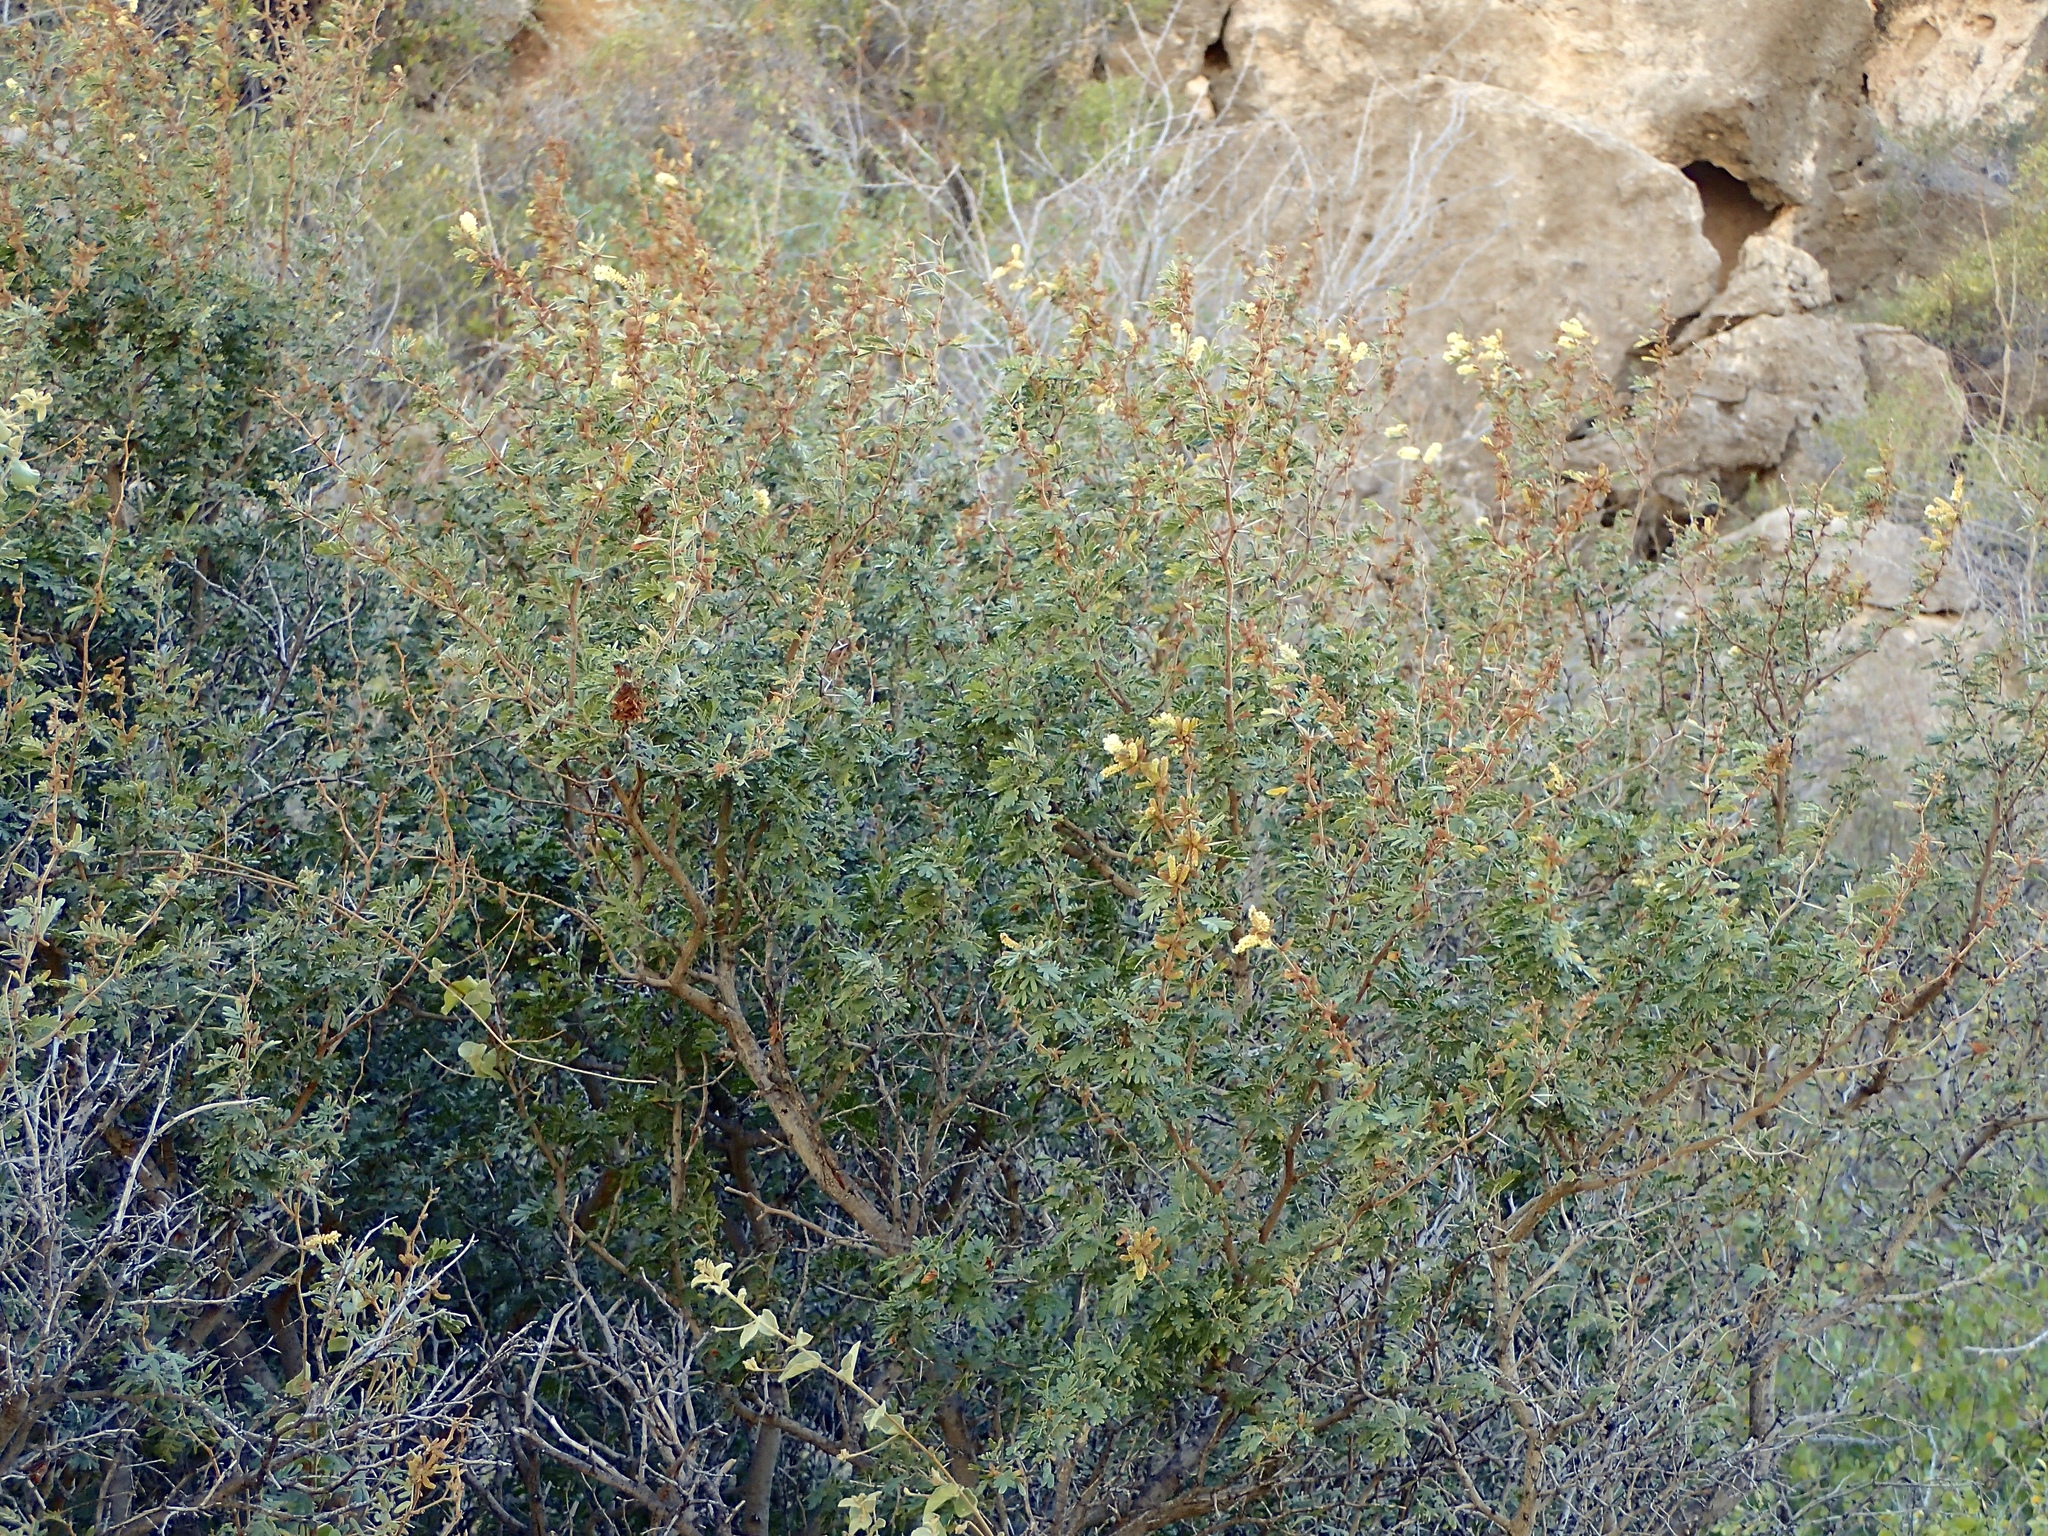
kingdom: Plantae
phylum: Tracheophyta
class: Magnoliopsida
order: Fabales
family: Fabaceae
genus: Vachellia
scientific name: Vachellia brandegeana
